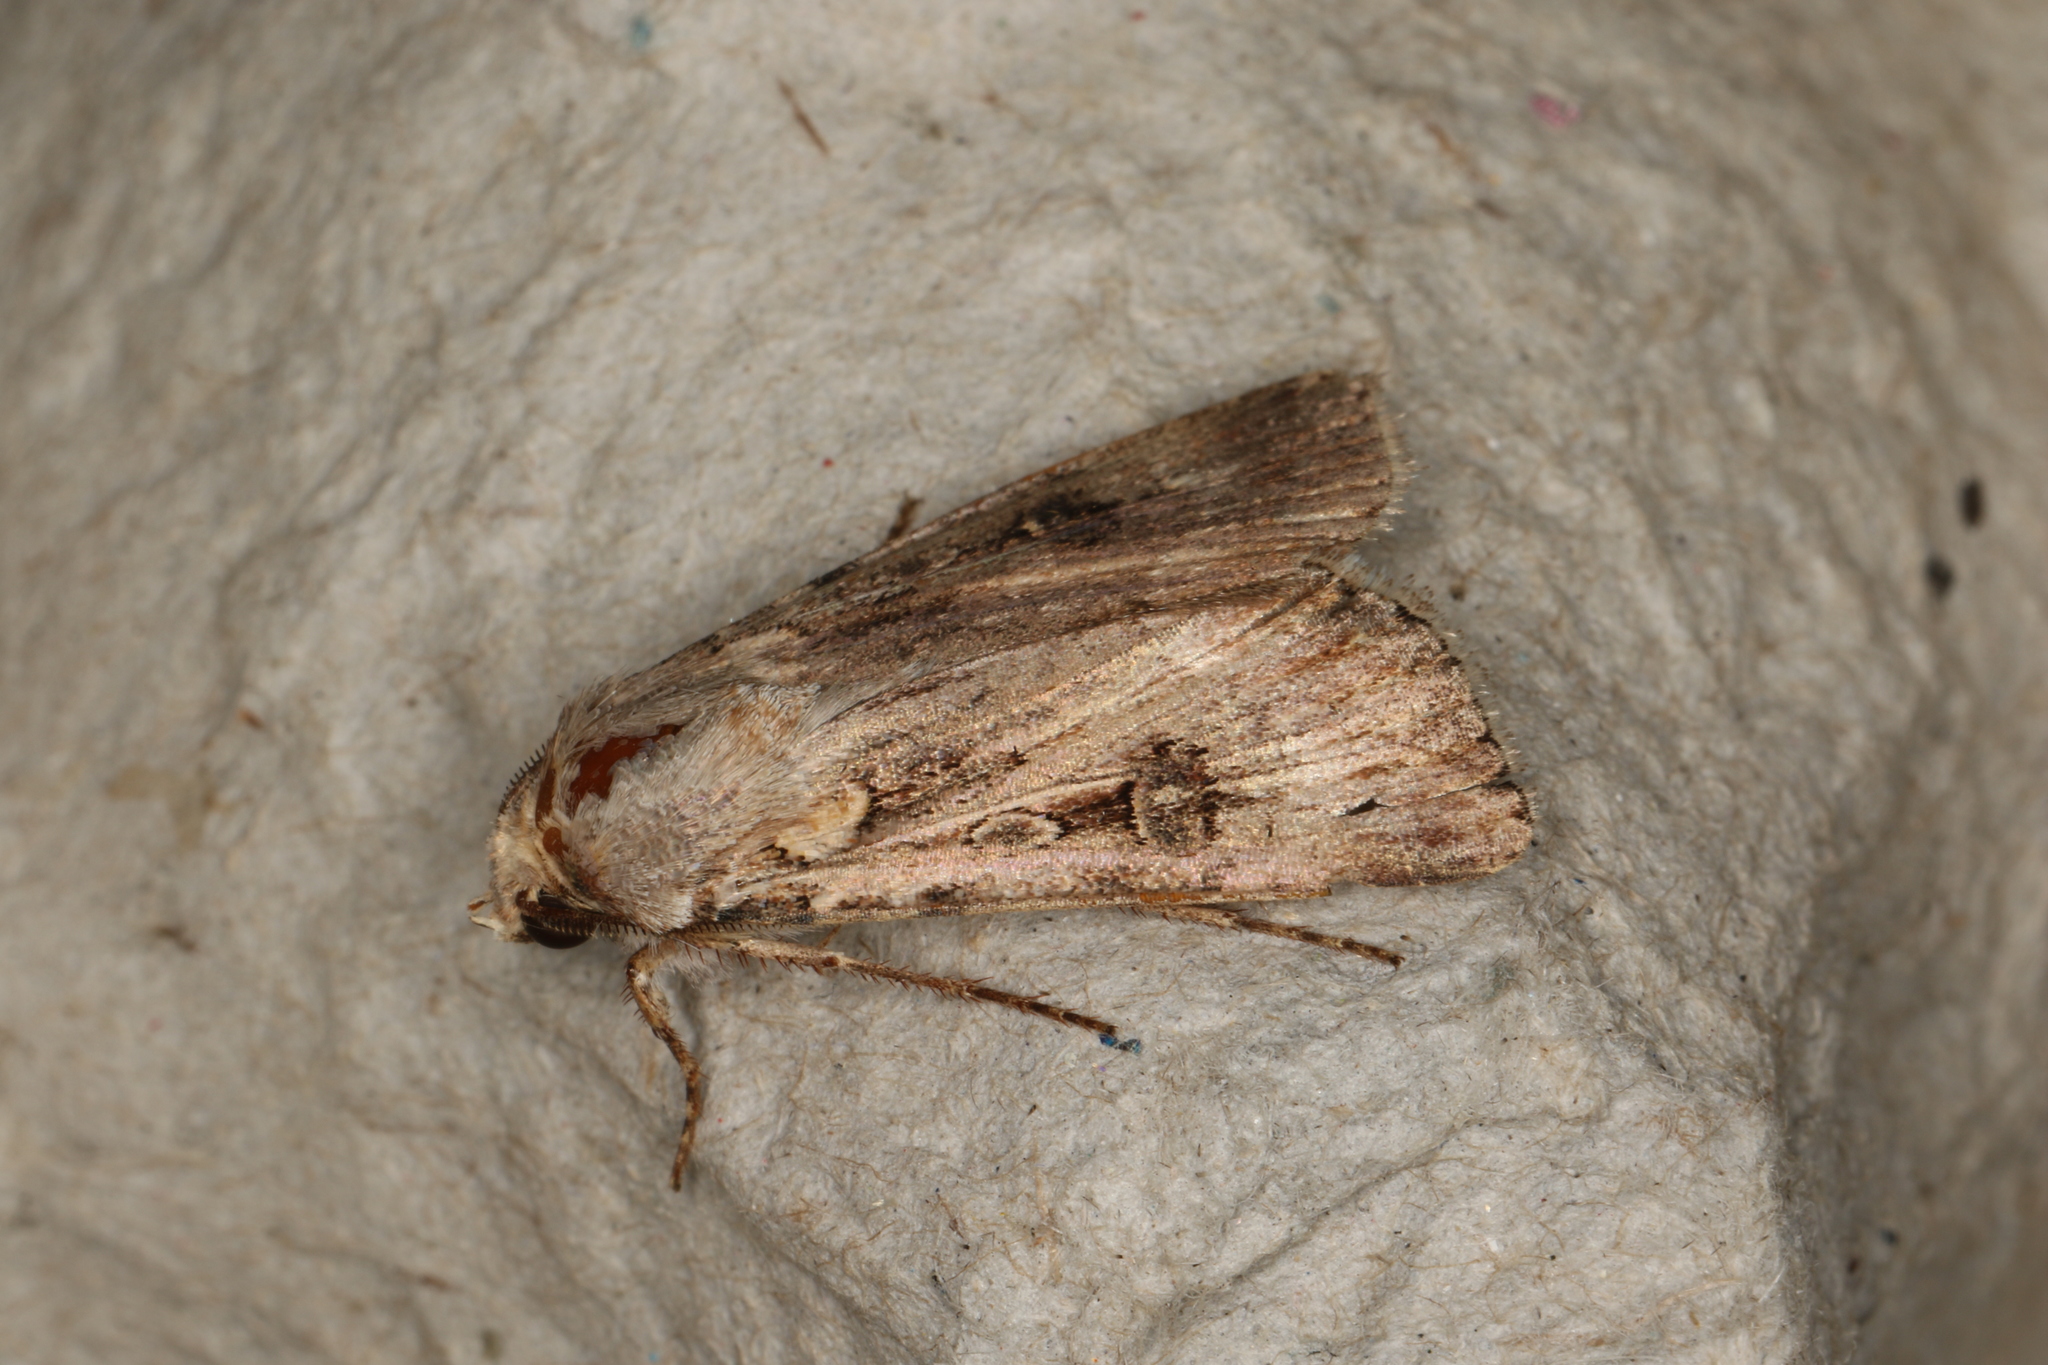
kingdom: Animalia
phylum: Arthropoda
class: Insecta
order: Lepidoptera
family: Noctuidae
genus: Agrotis
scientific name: Agrotis munda
